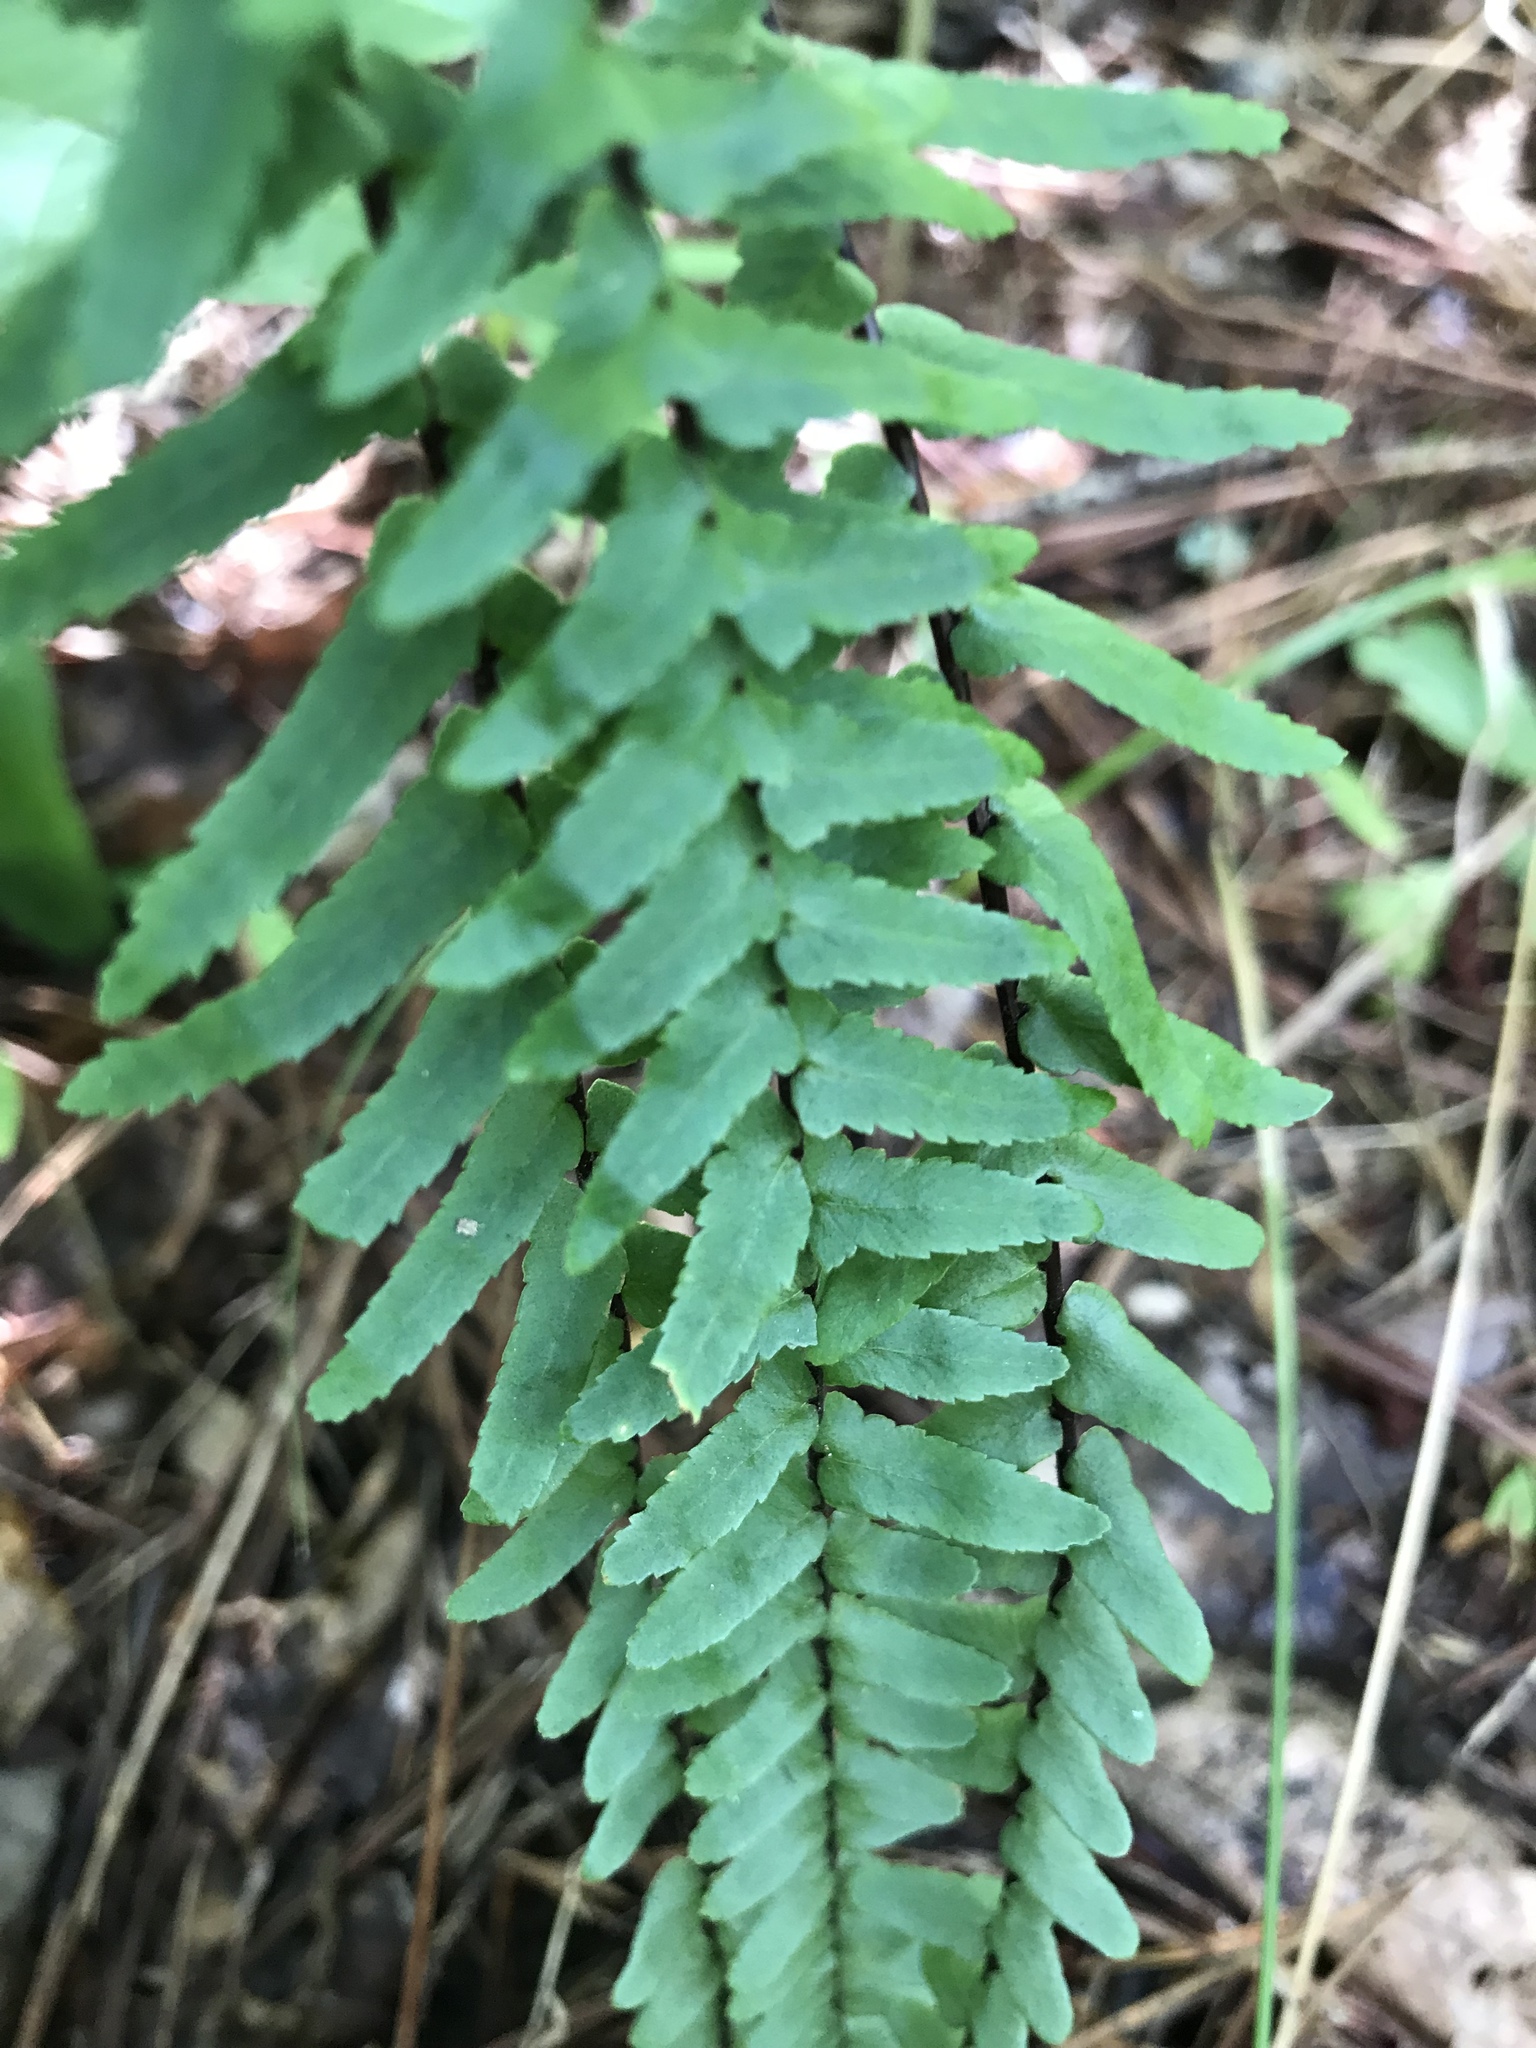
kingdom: Plantae
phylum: Tracheophyta
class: Polypodiopsida
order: Polypodiales
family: Aspleniaceae
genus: Asplenium
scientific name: Asplenium platyneuron
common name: Ebony spleenwort
